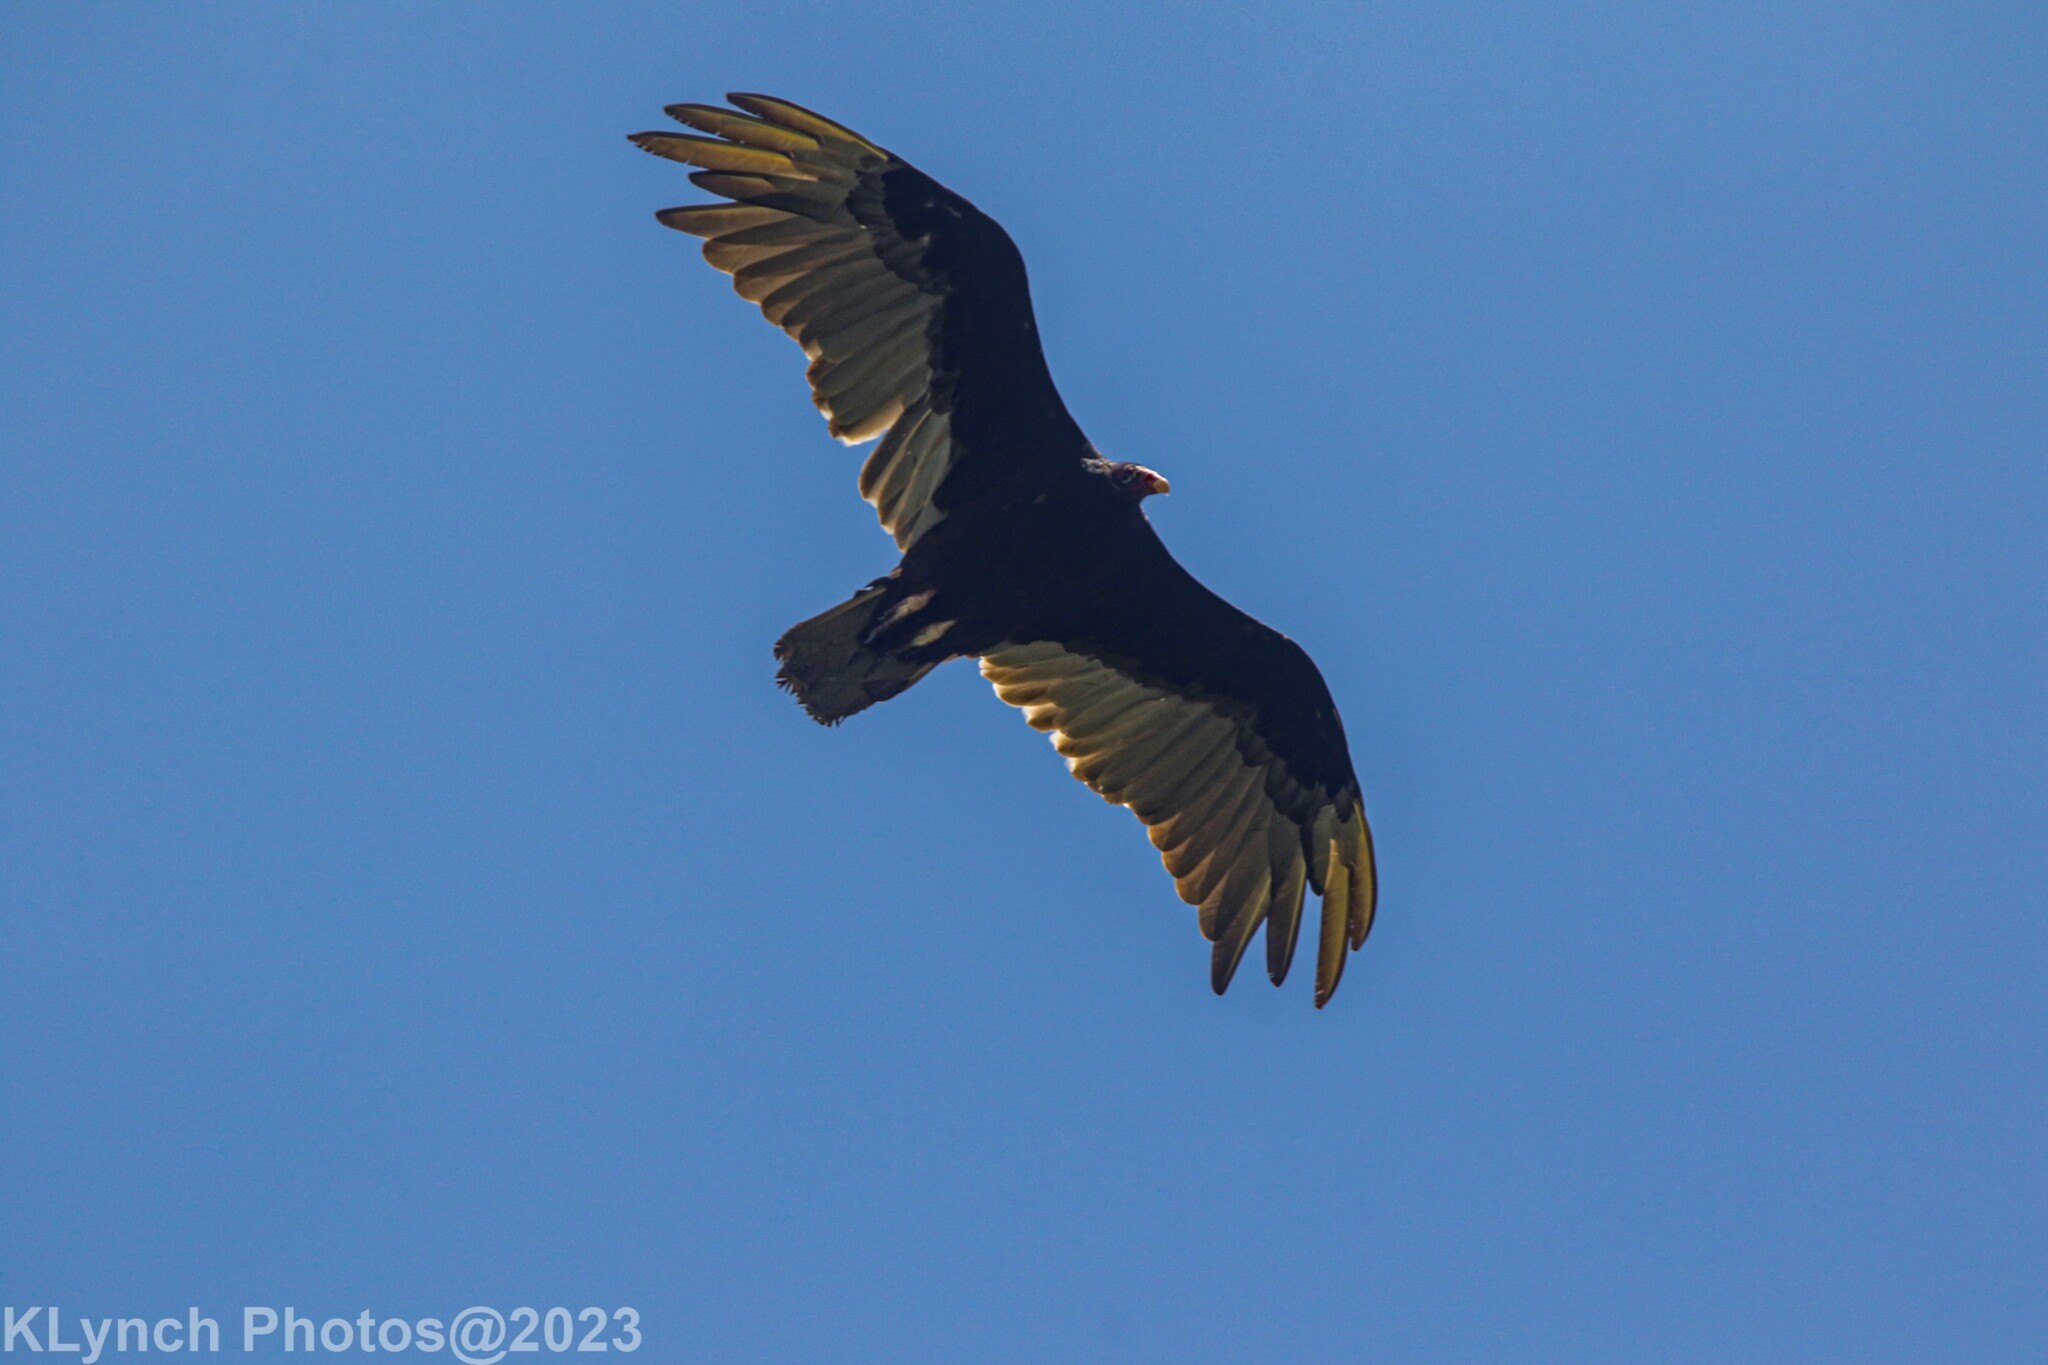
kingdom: Animalia
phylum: Chordata
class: Aves
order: Accipitriformes
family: Cathartidae
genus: Cathartes
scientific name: Cathartes aura
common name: Turkey vulture
